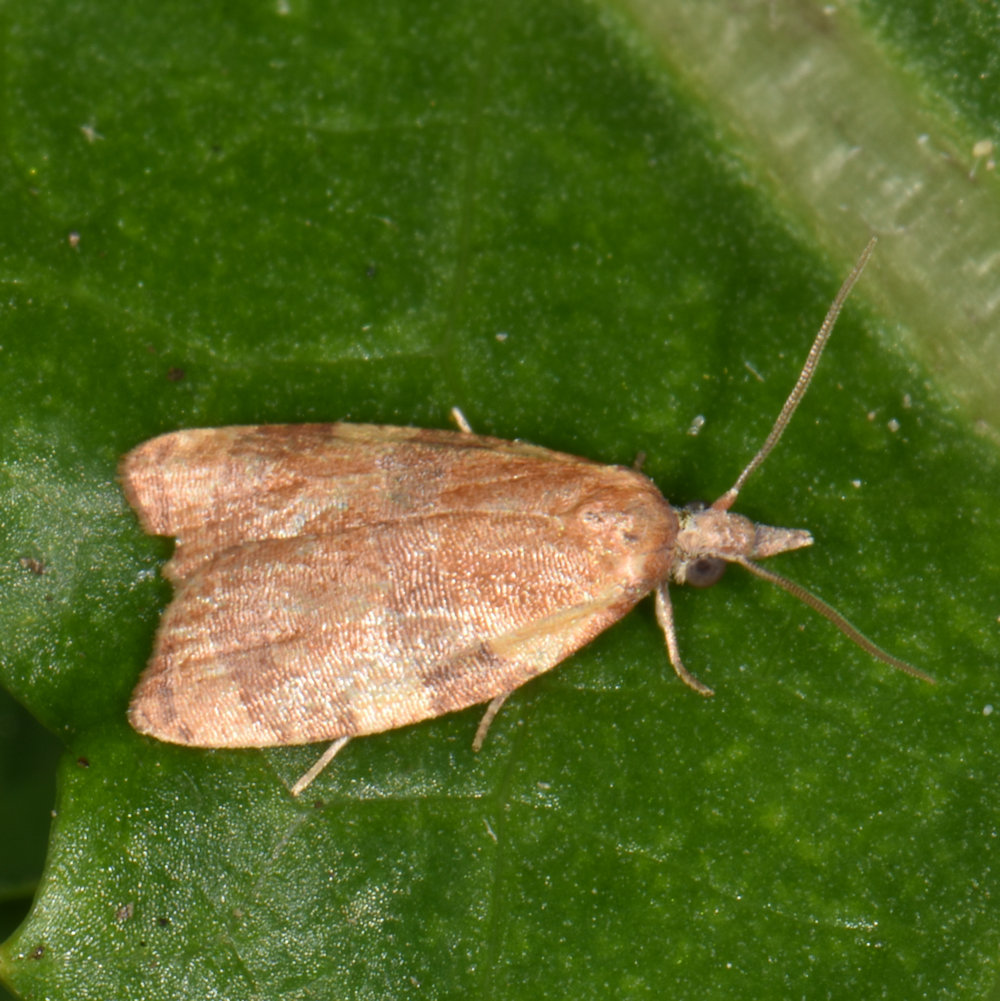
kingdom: Animalia
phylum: Arthropoda
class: Insecta
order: Lepidoptera
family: Tortricidae
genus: Cenopis
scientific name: Cenopis diluticostana
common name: Spring dead-leaf roller moth
